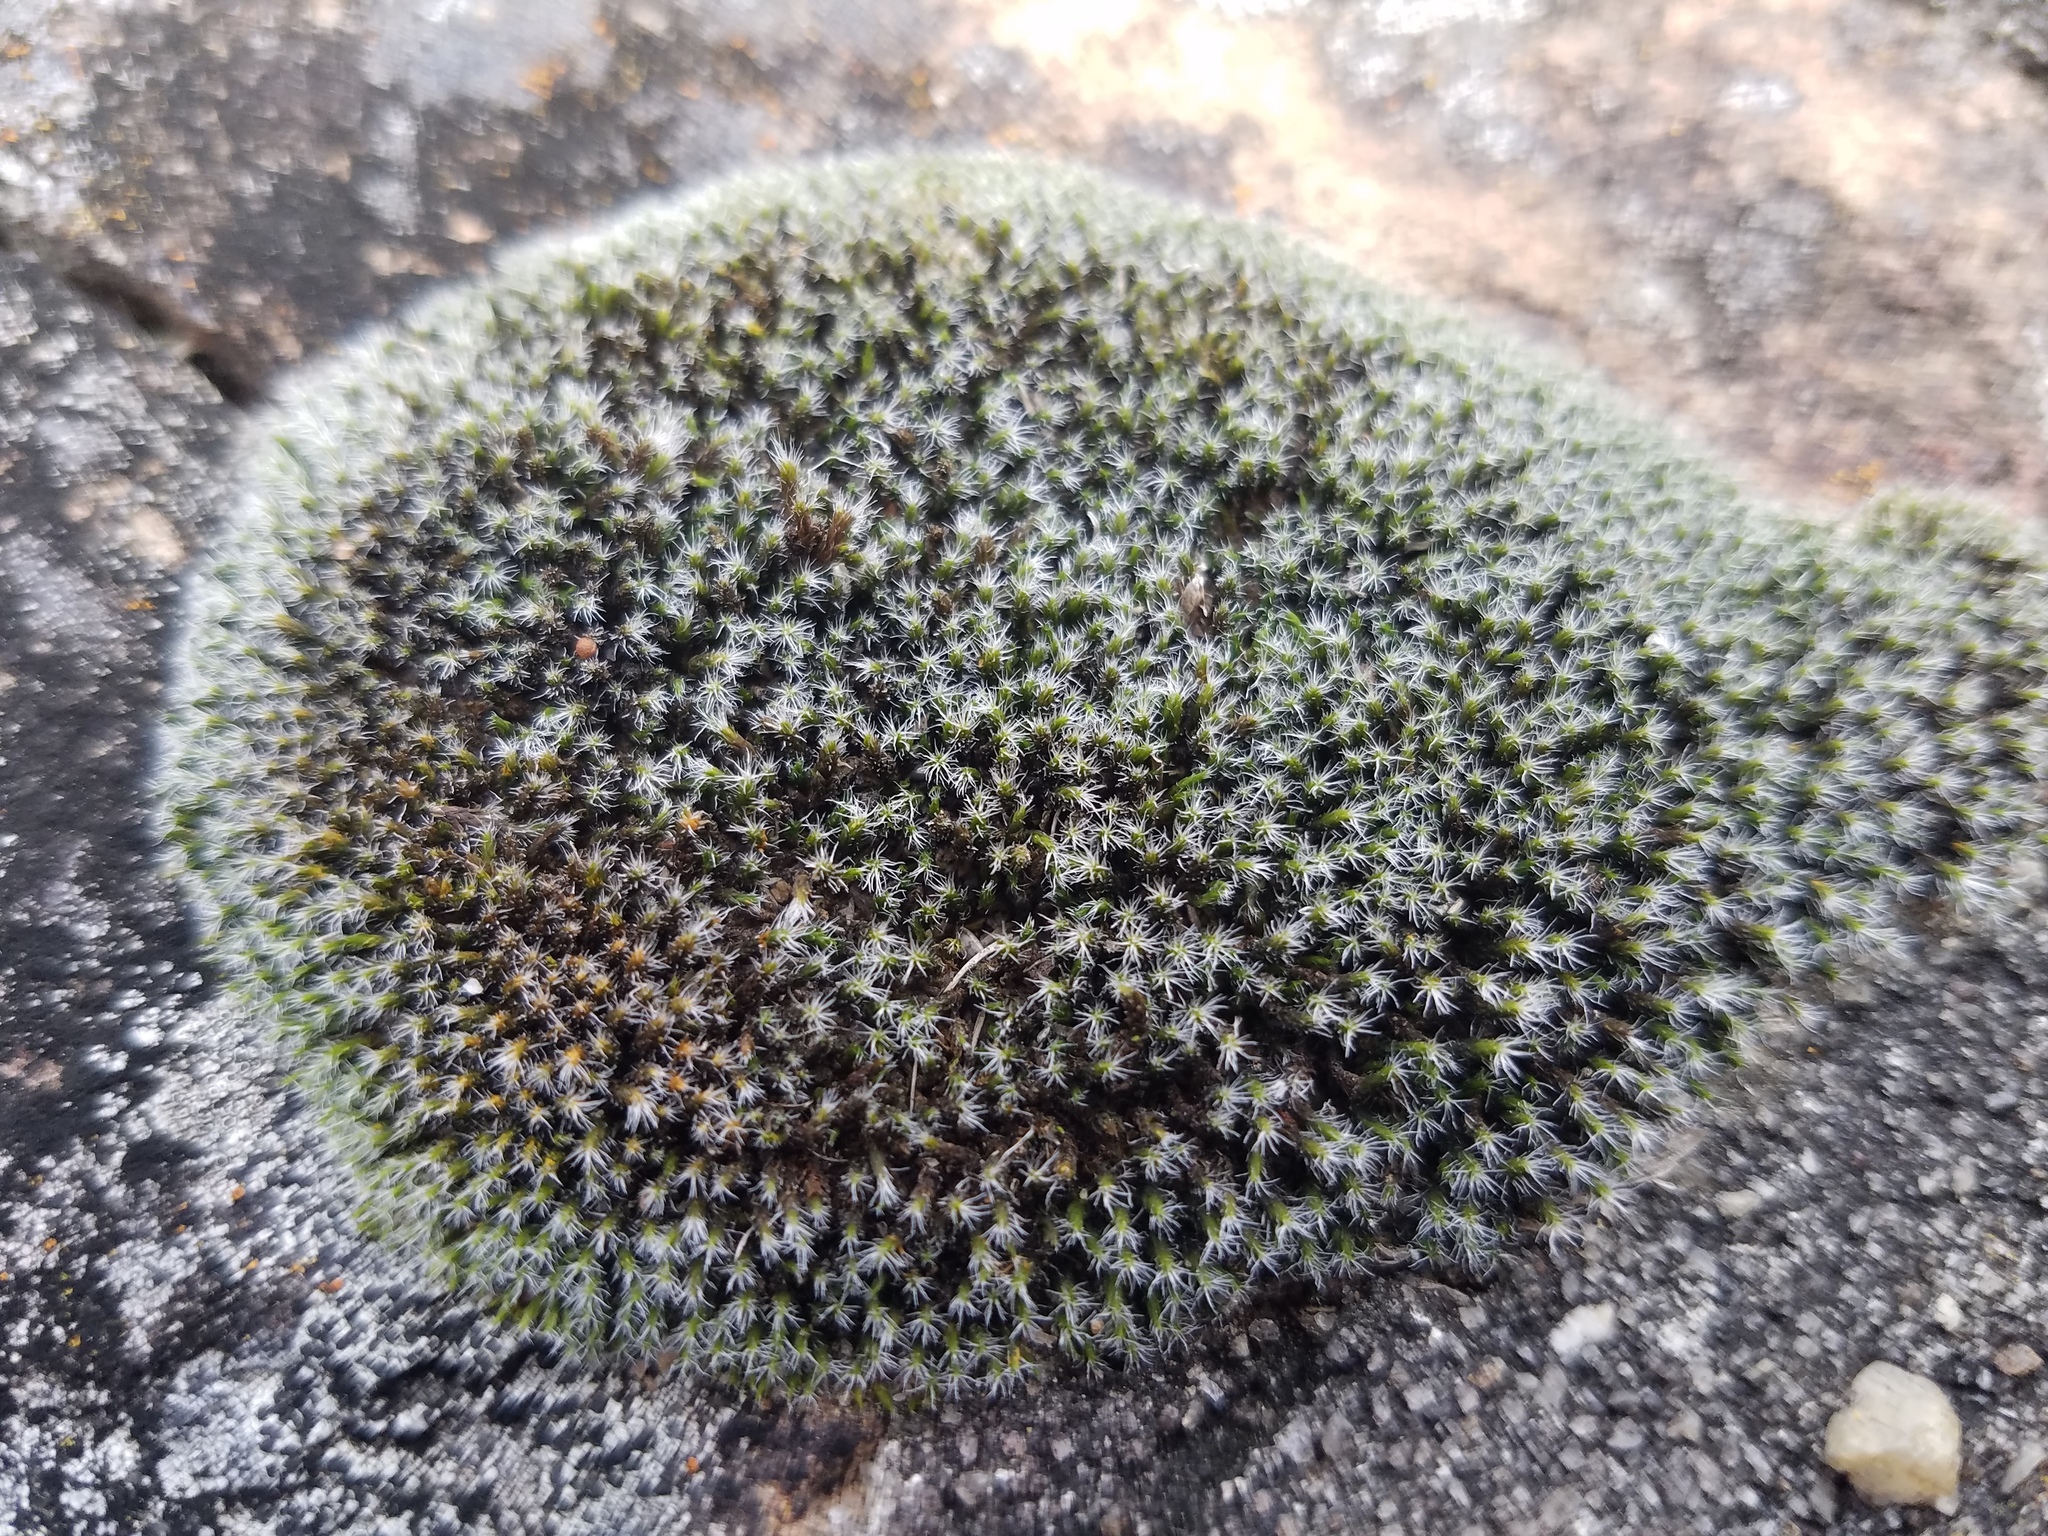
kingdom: Plantae
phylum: Bryophyta
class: Bryopsida
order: Grimmiales
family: Grimmiaceae
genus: Grimmia
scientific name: Grimmia laevigata
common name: Hoary grimmia
